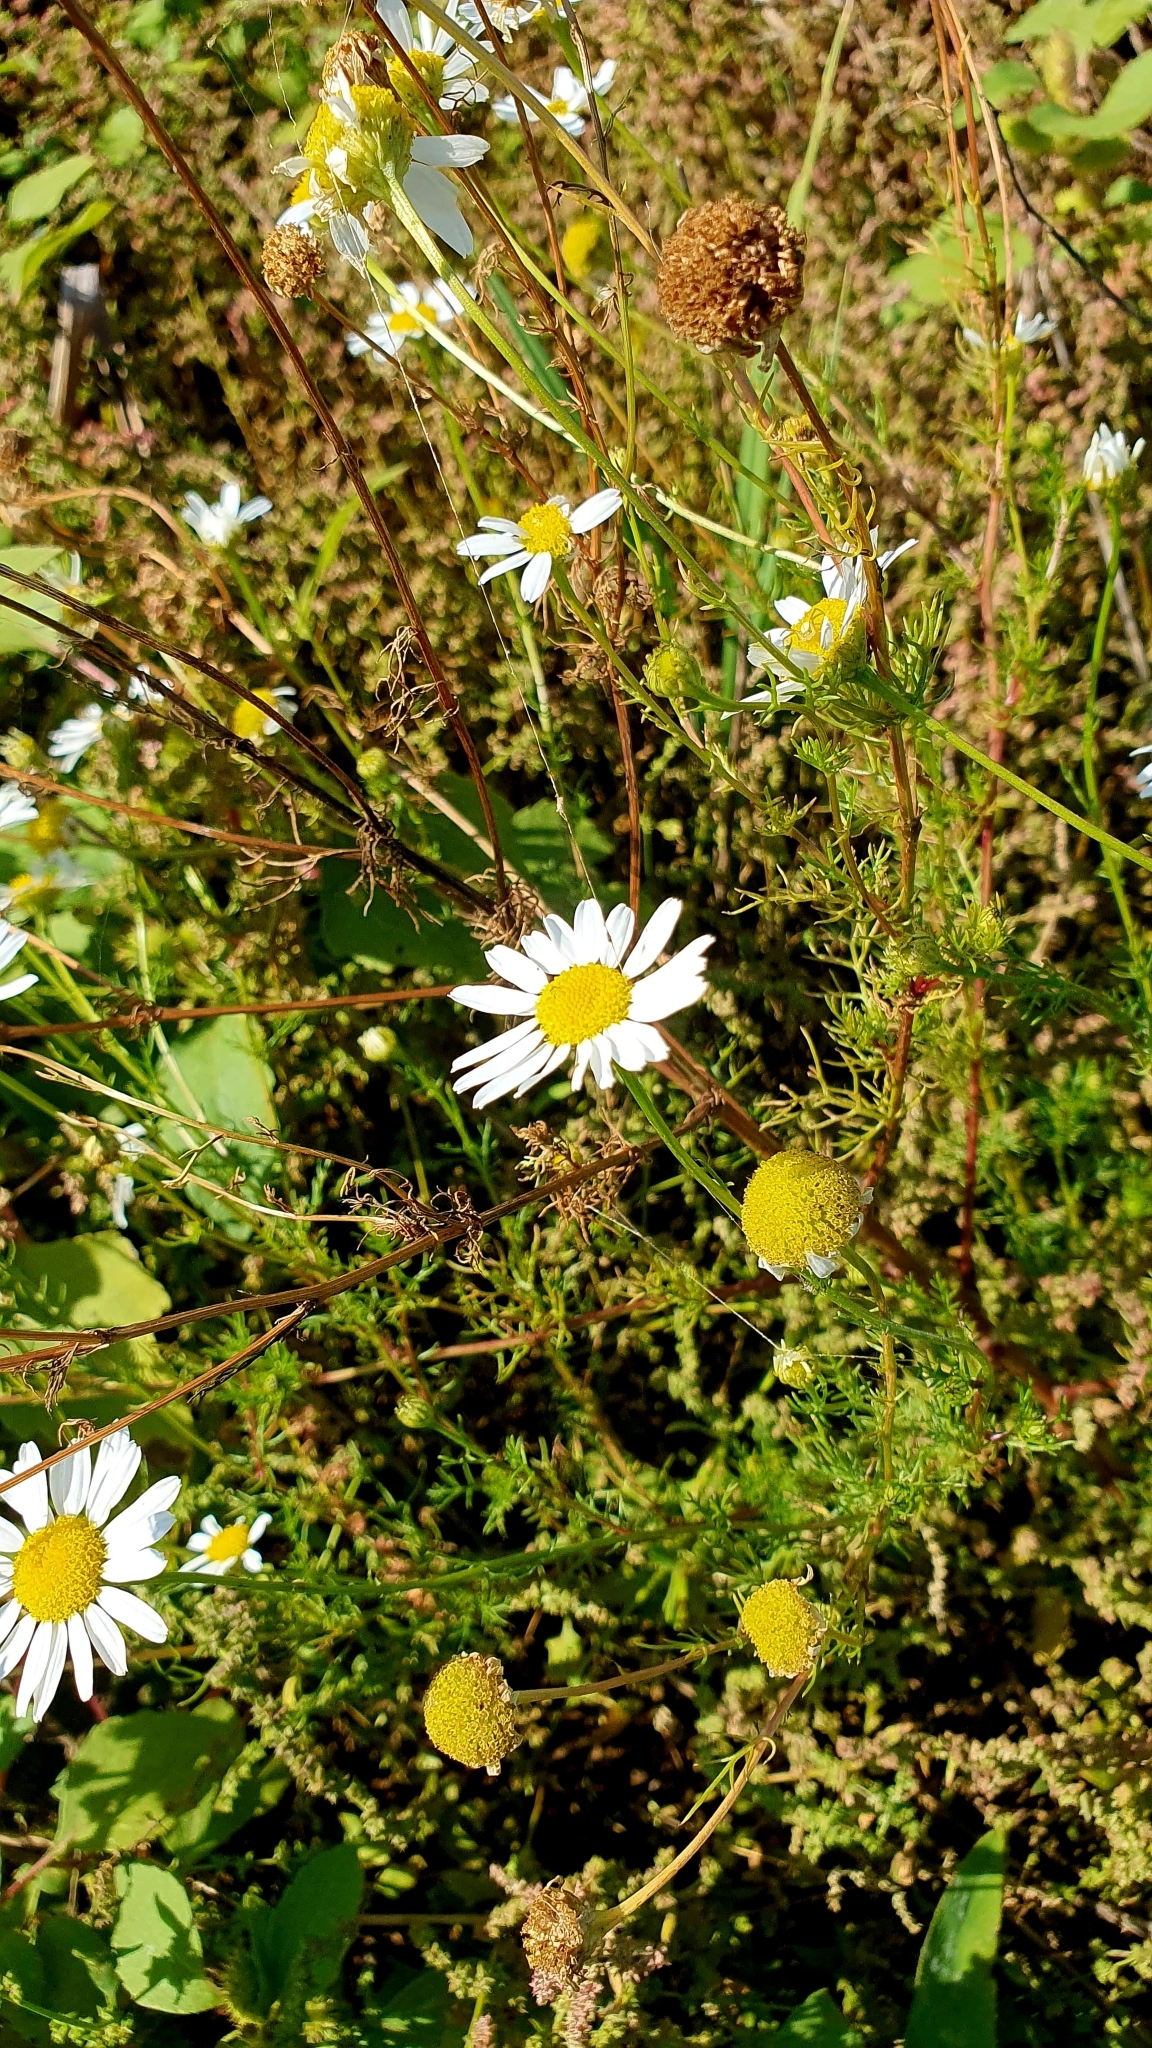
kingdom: Plantae
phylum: Tracheophyta
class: Magnoliopsida
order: Asterales
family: Asteraceae
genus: Tripleurospermum
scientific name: Tripleurospermum inodorum
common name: Scentless mayweed
